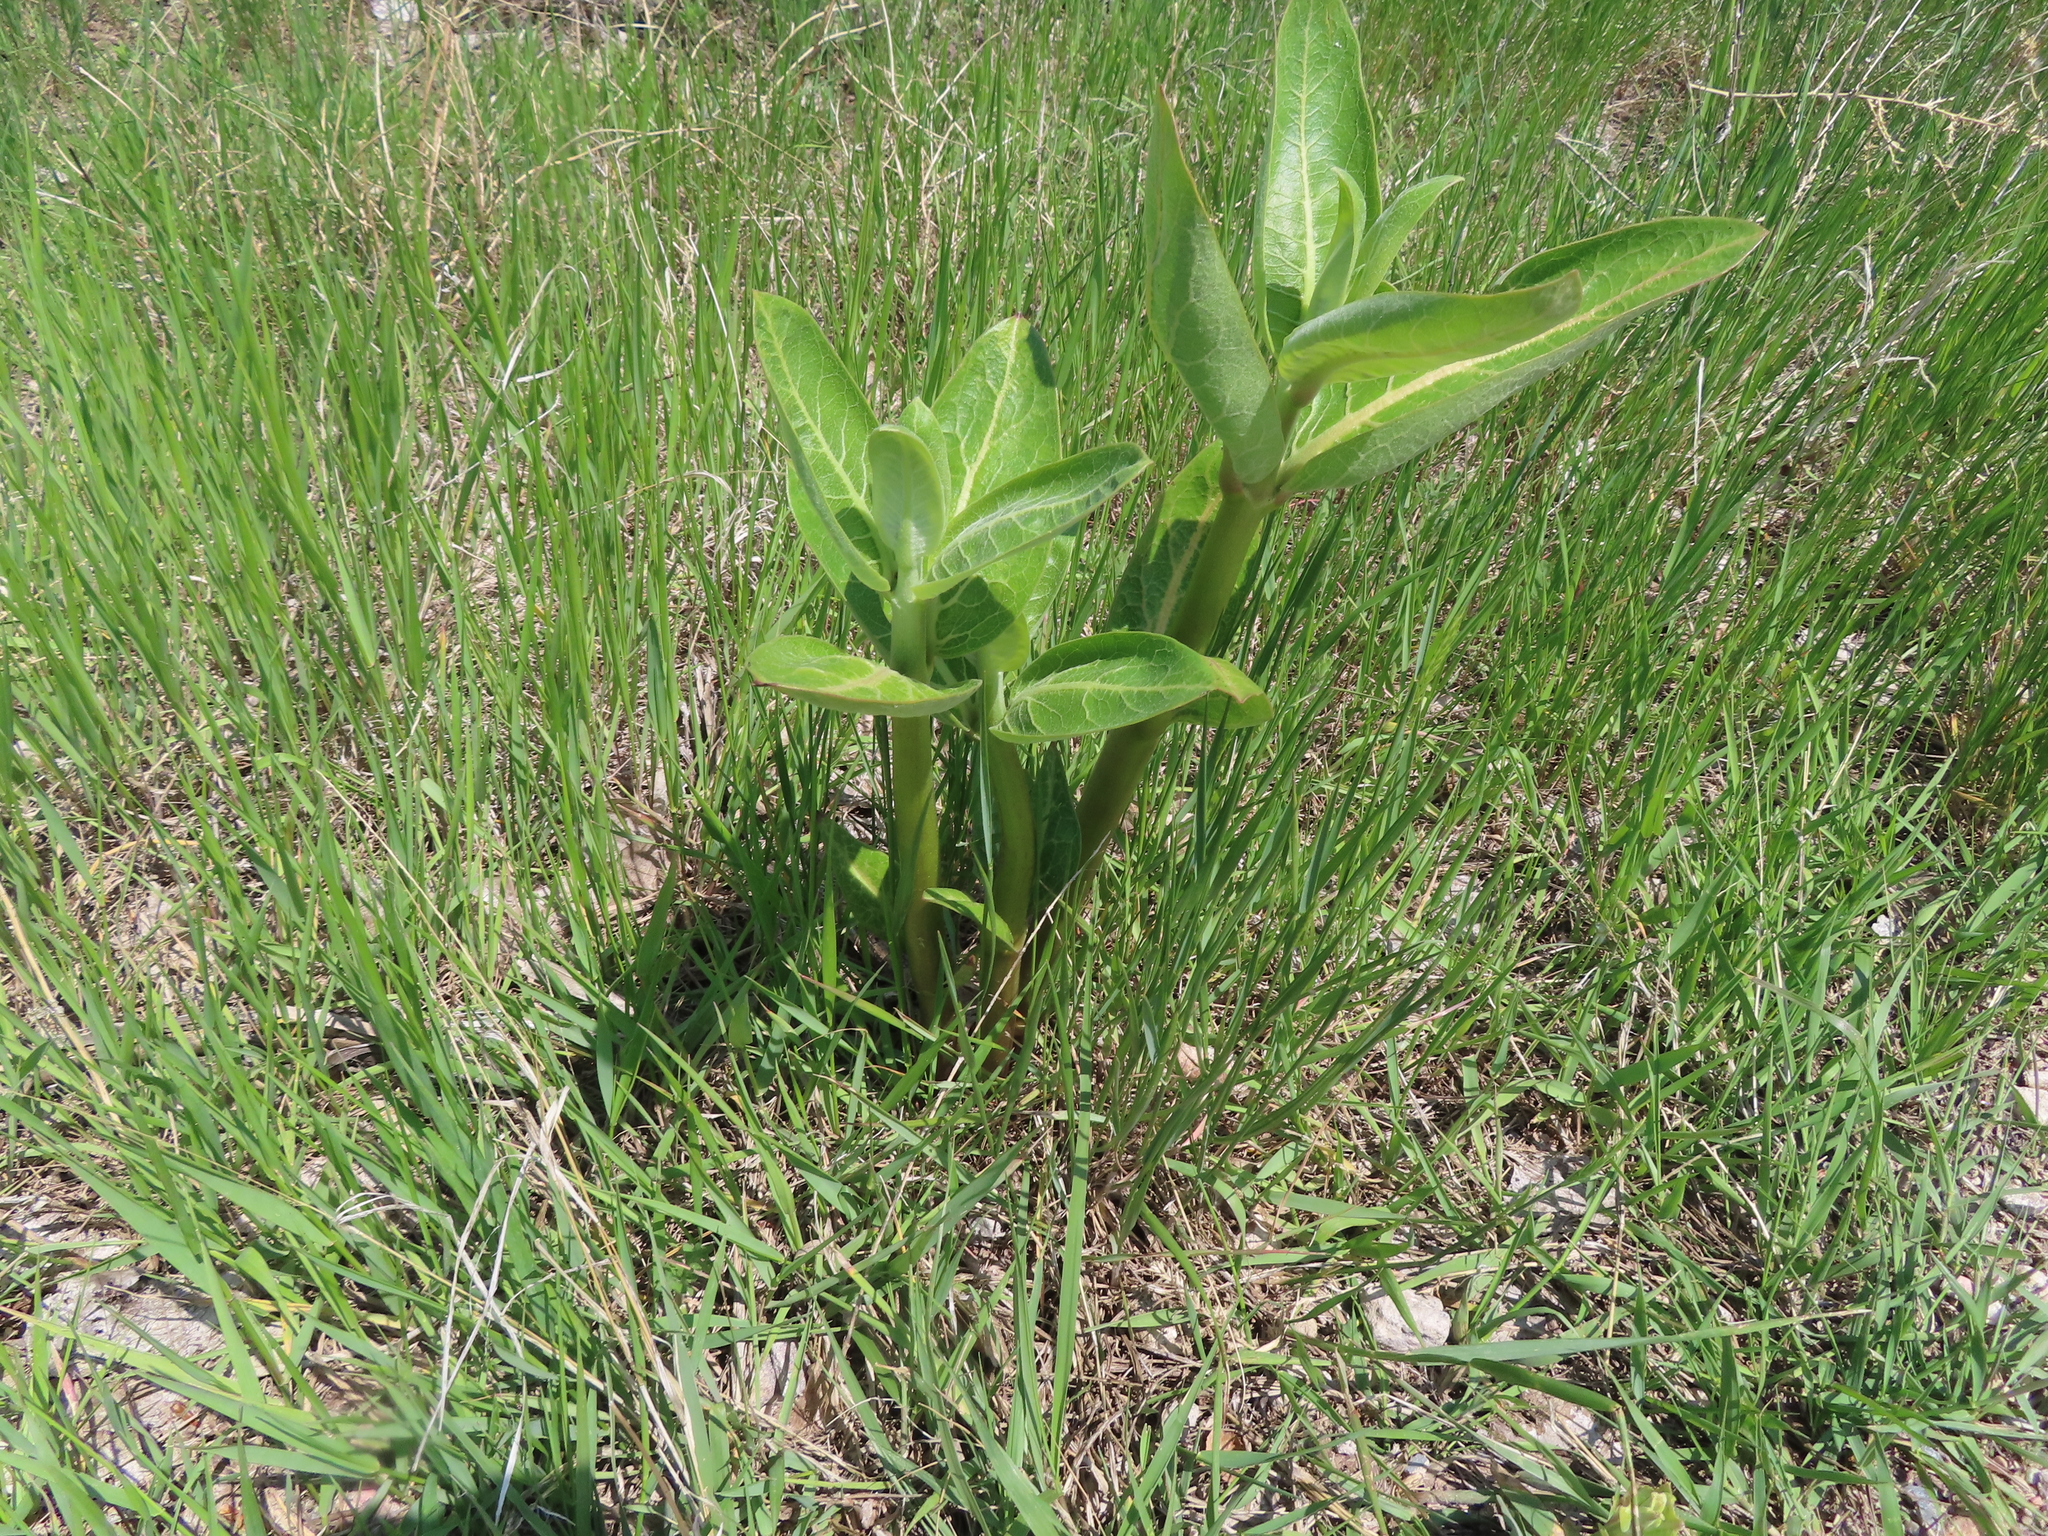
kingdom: Plantae
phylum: Tracheophyta
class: Magnoliopsida
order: Gentianales
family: Apocynaceae
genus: Asclepias
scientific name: Asclepias speciosa
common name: Showy milkweed
